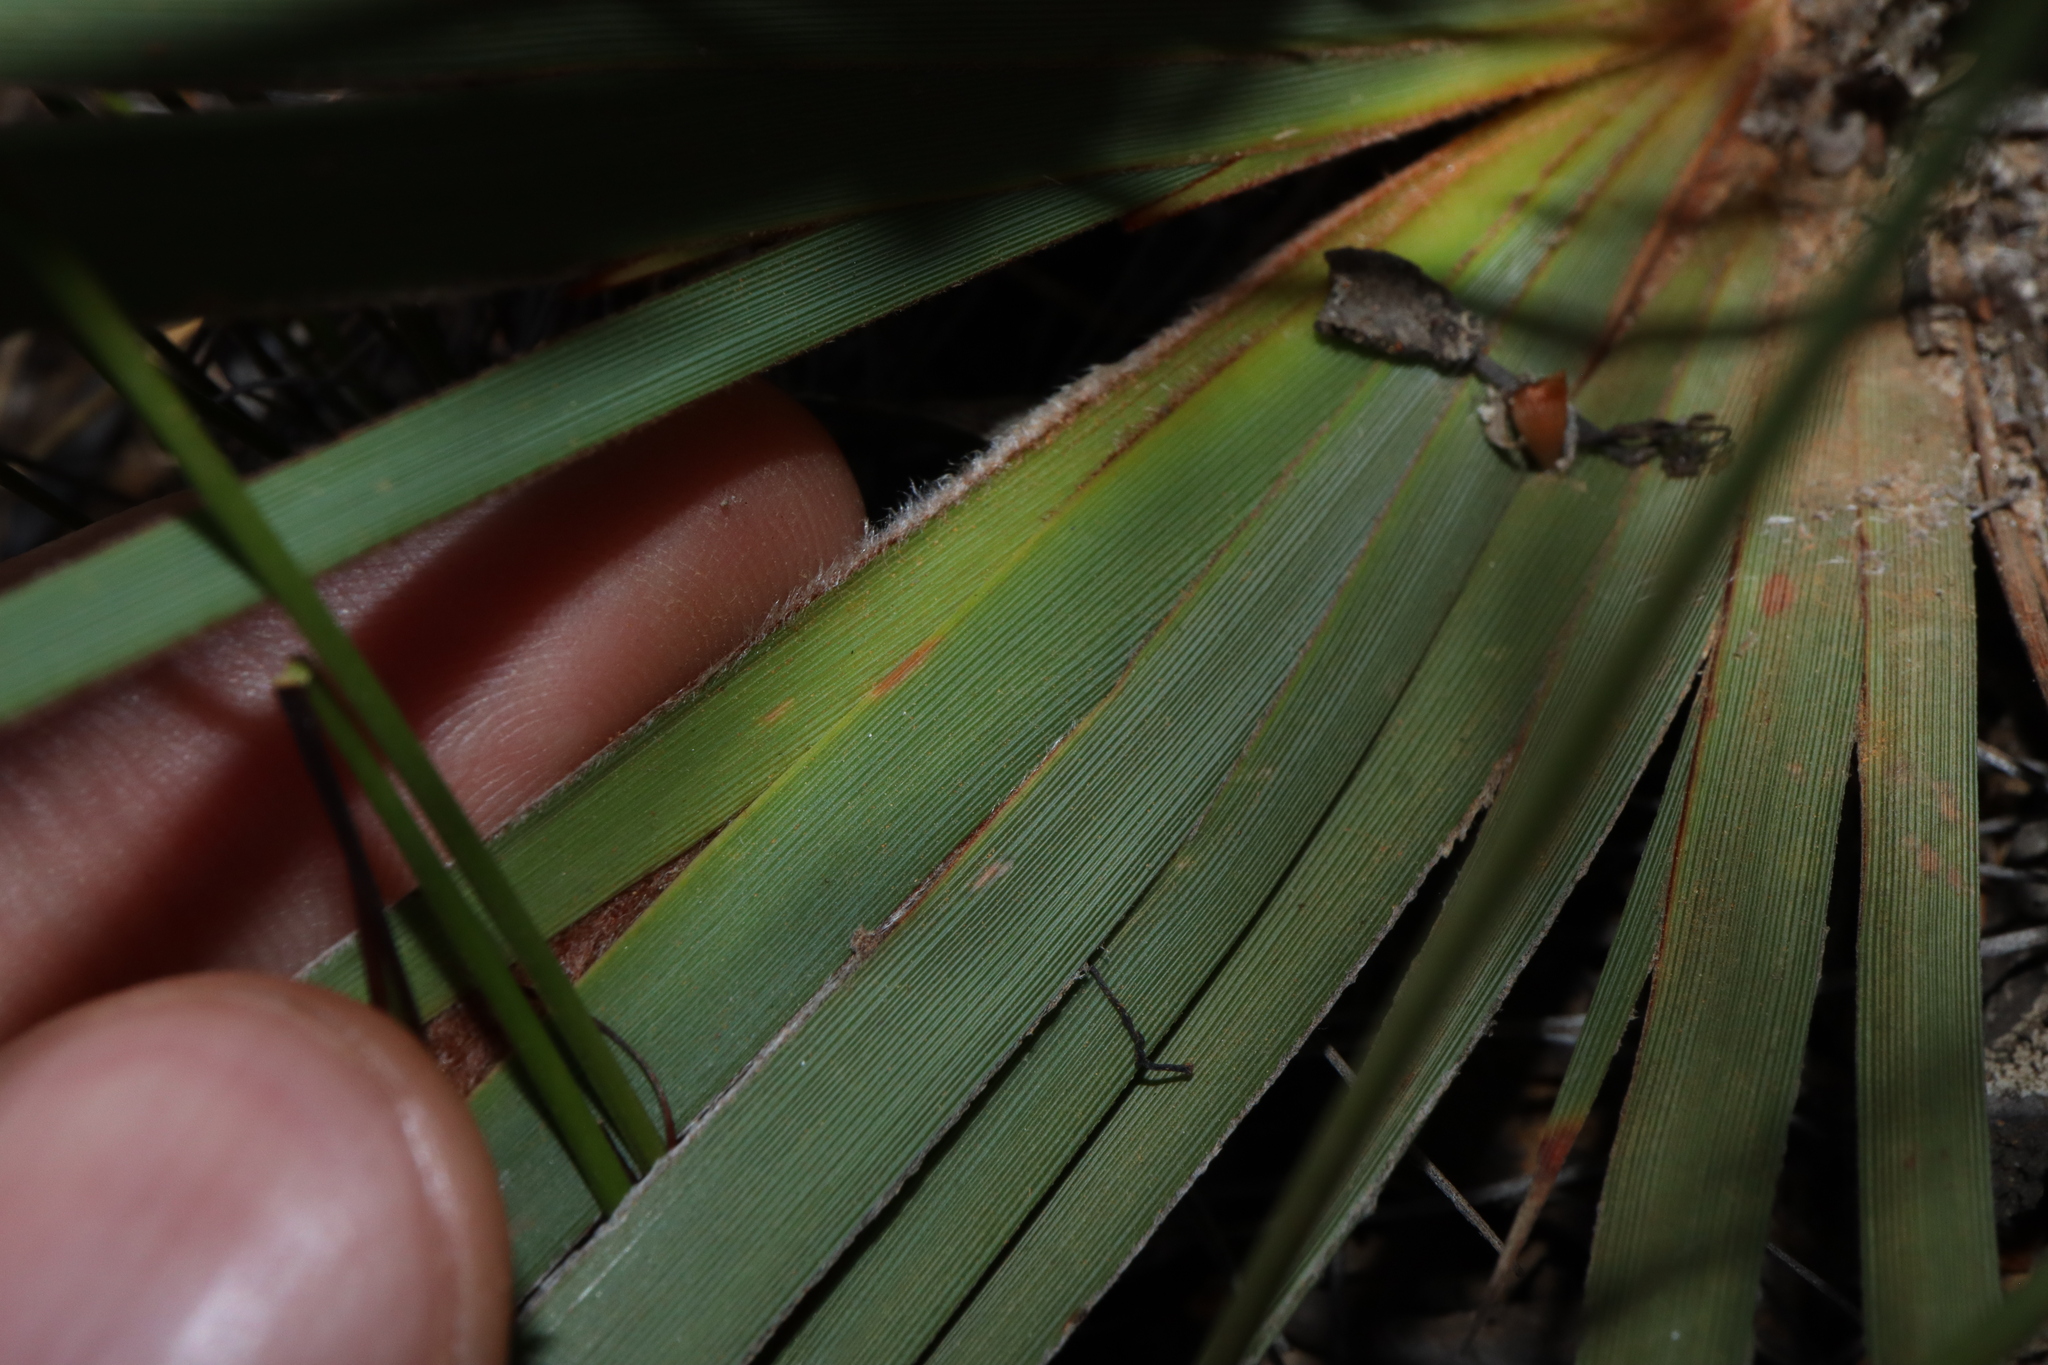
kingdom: Plantae
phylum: Tracheophyta
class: Liliopsida
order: Asparagales
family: Iridaceae
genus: Patersonia
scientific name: Patersonia lanata
